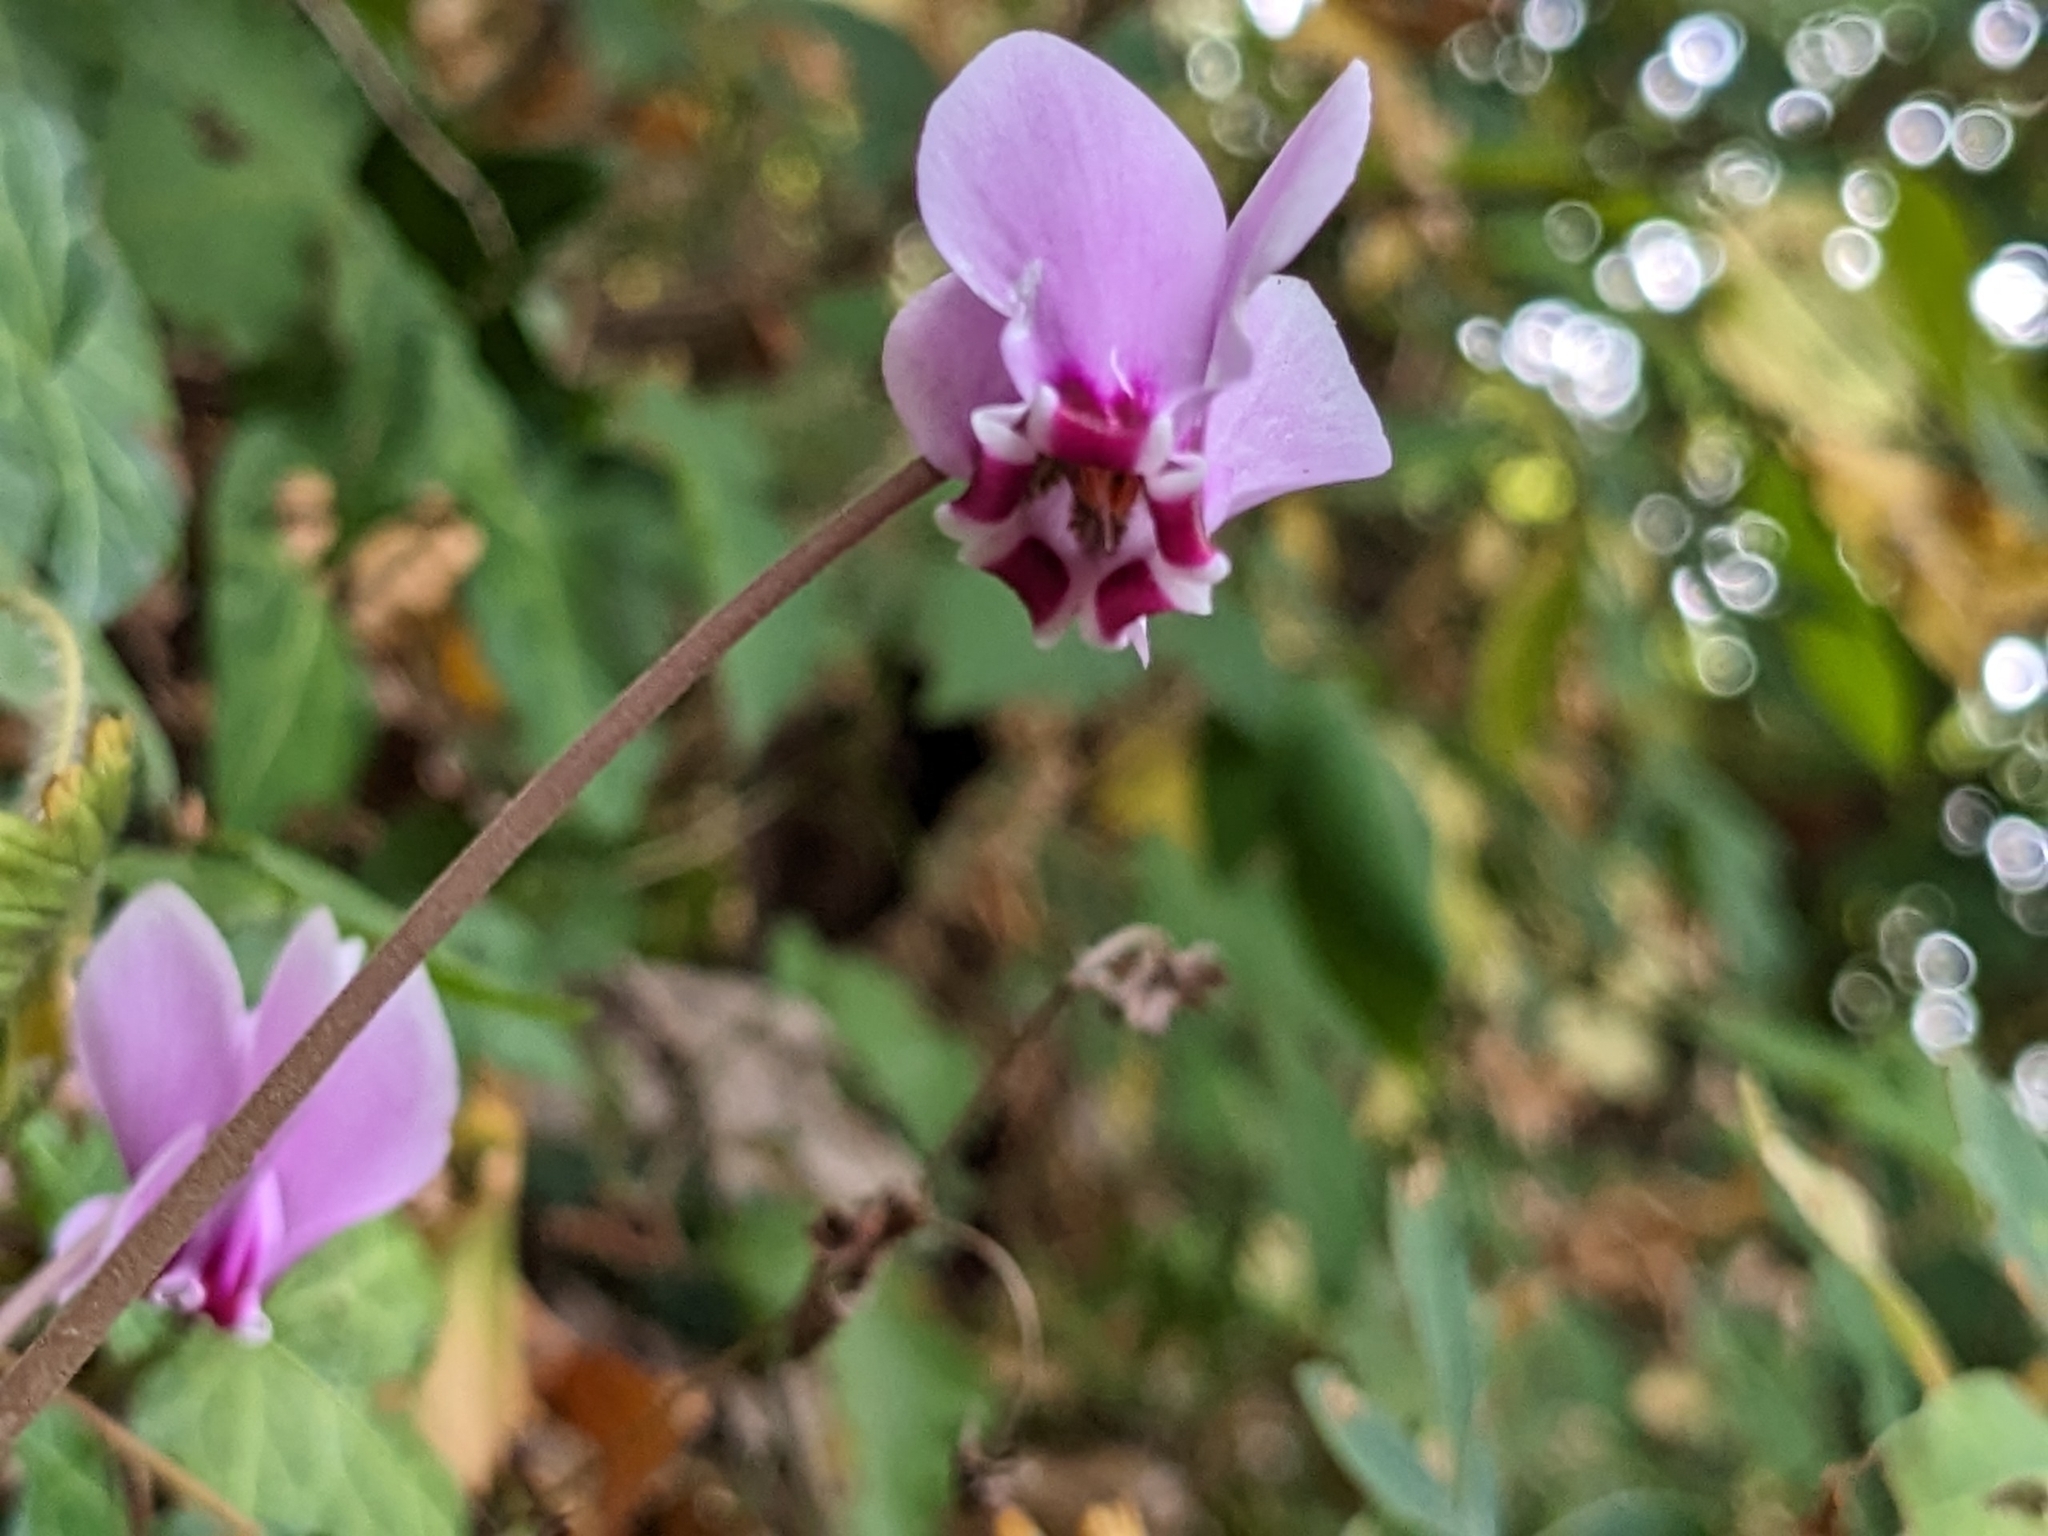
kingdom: Plantae
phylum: Tracheophyta
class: Magnoliopsida
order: Ericales
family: Primulaceae
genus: Cyclamen
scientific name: Cyclamen hederifolium
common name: Sowbread
